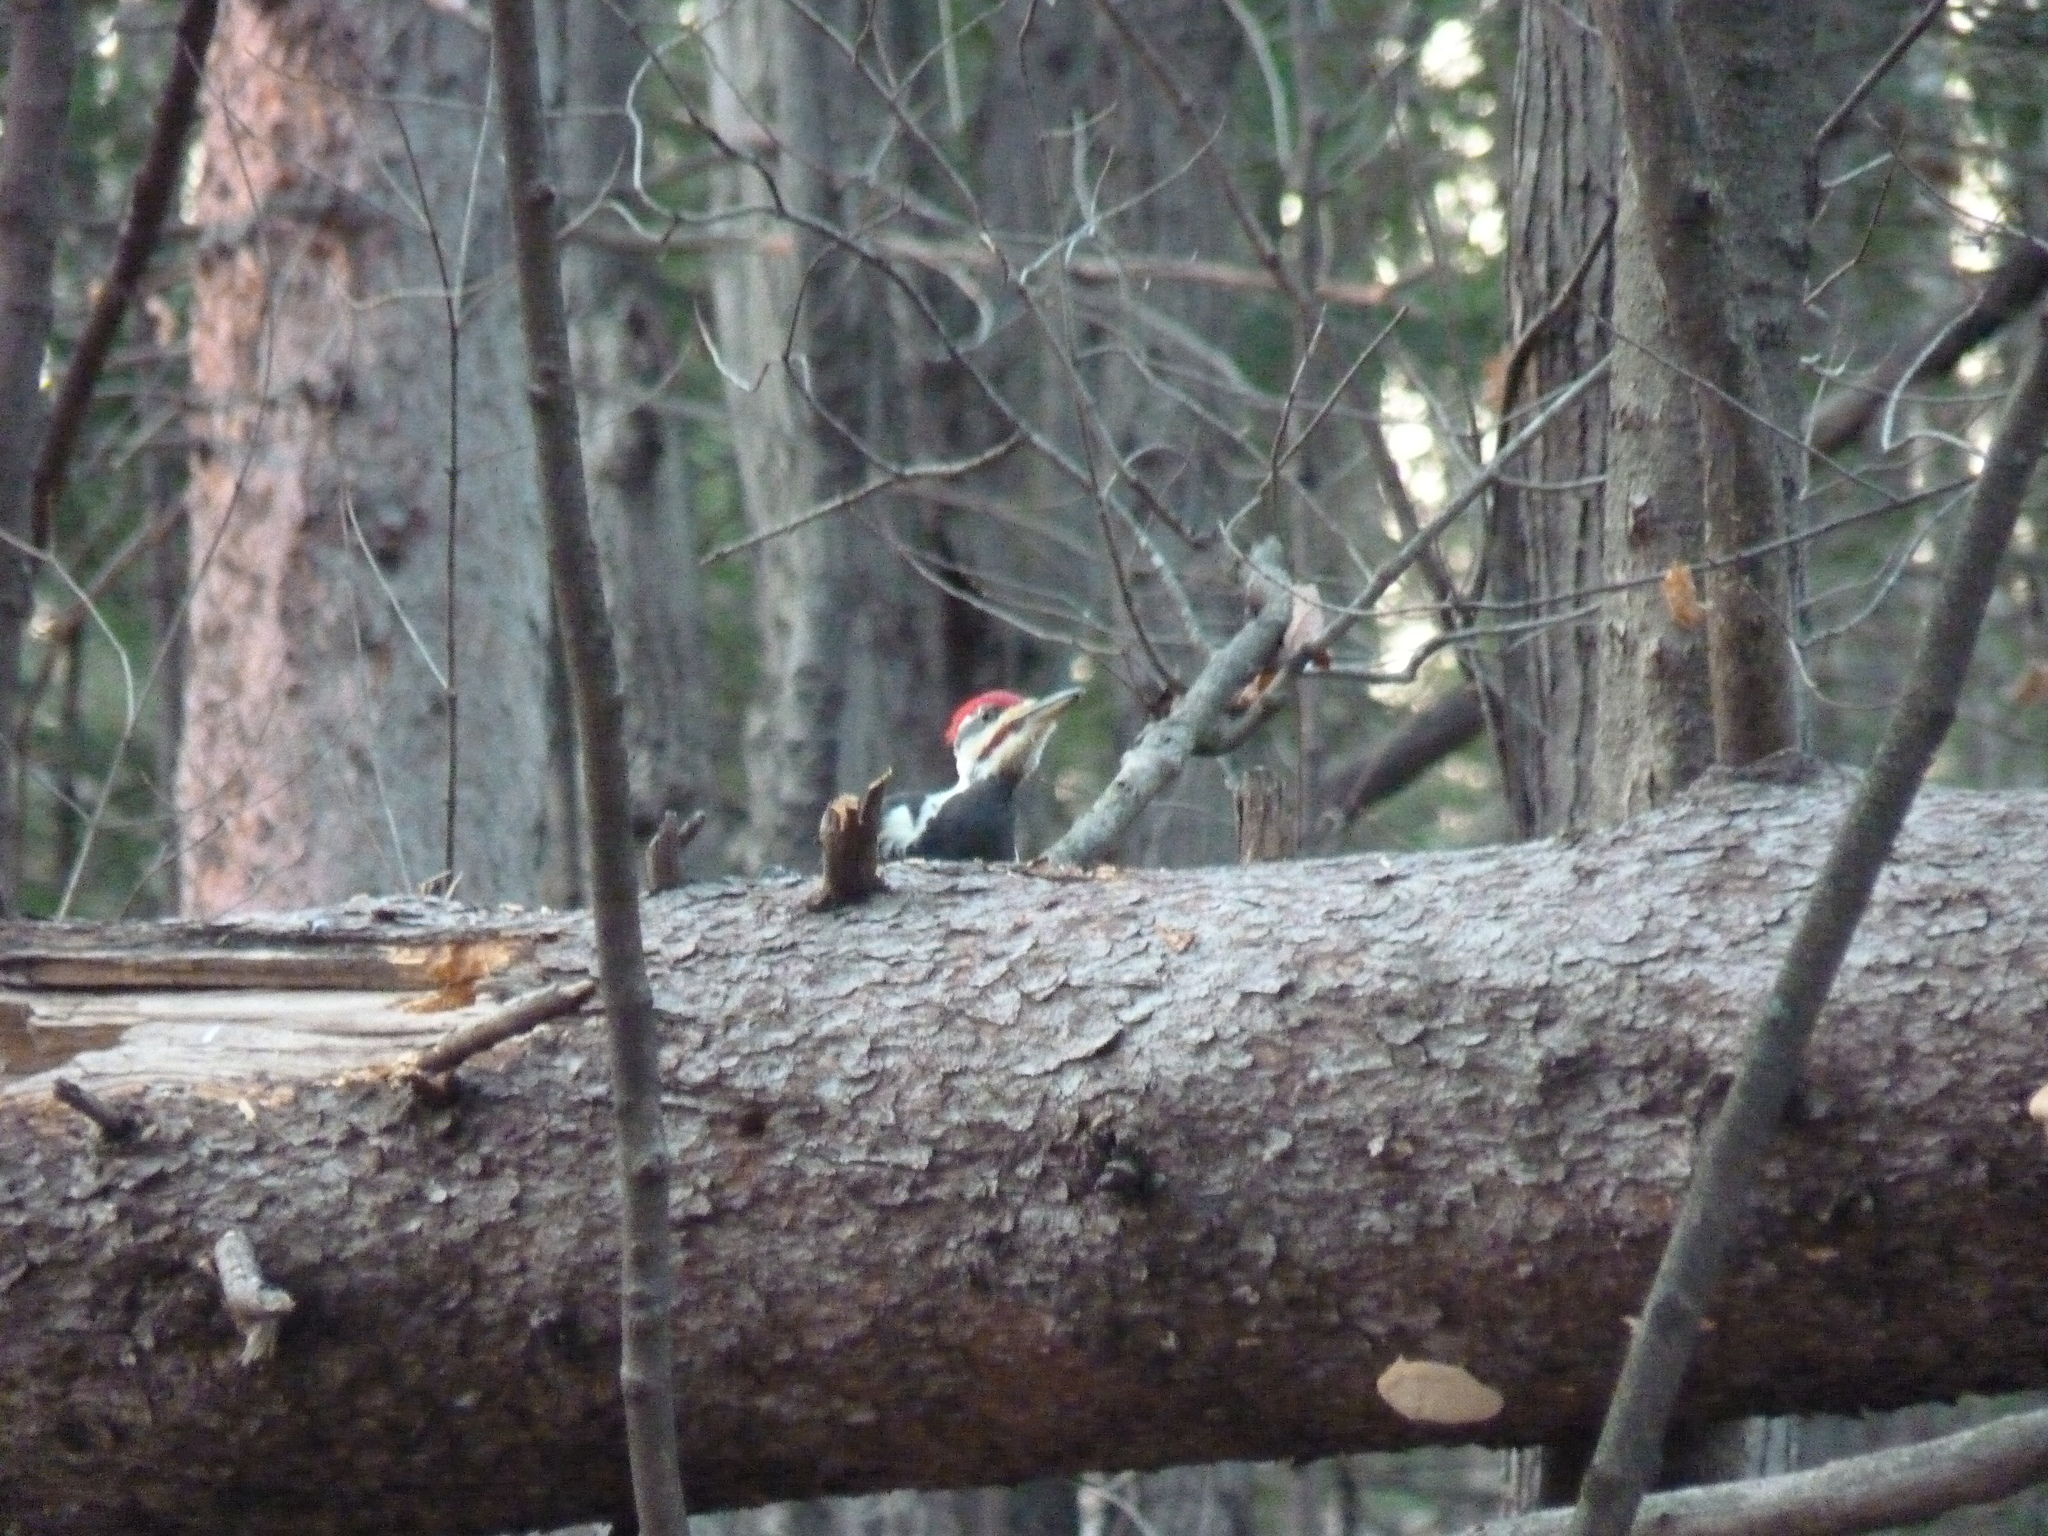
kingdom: Animalia
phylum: Chordata
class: Aves
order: Piciformes
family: Picidae
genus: Dryocopus
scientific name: Dryocopus pileatus
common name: Pileated woodpecker
